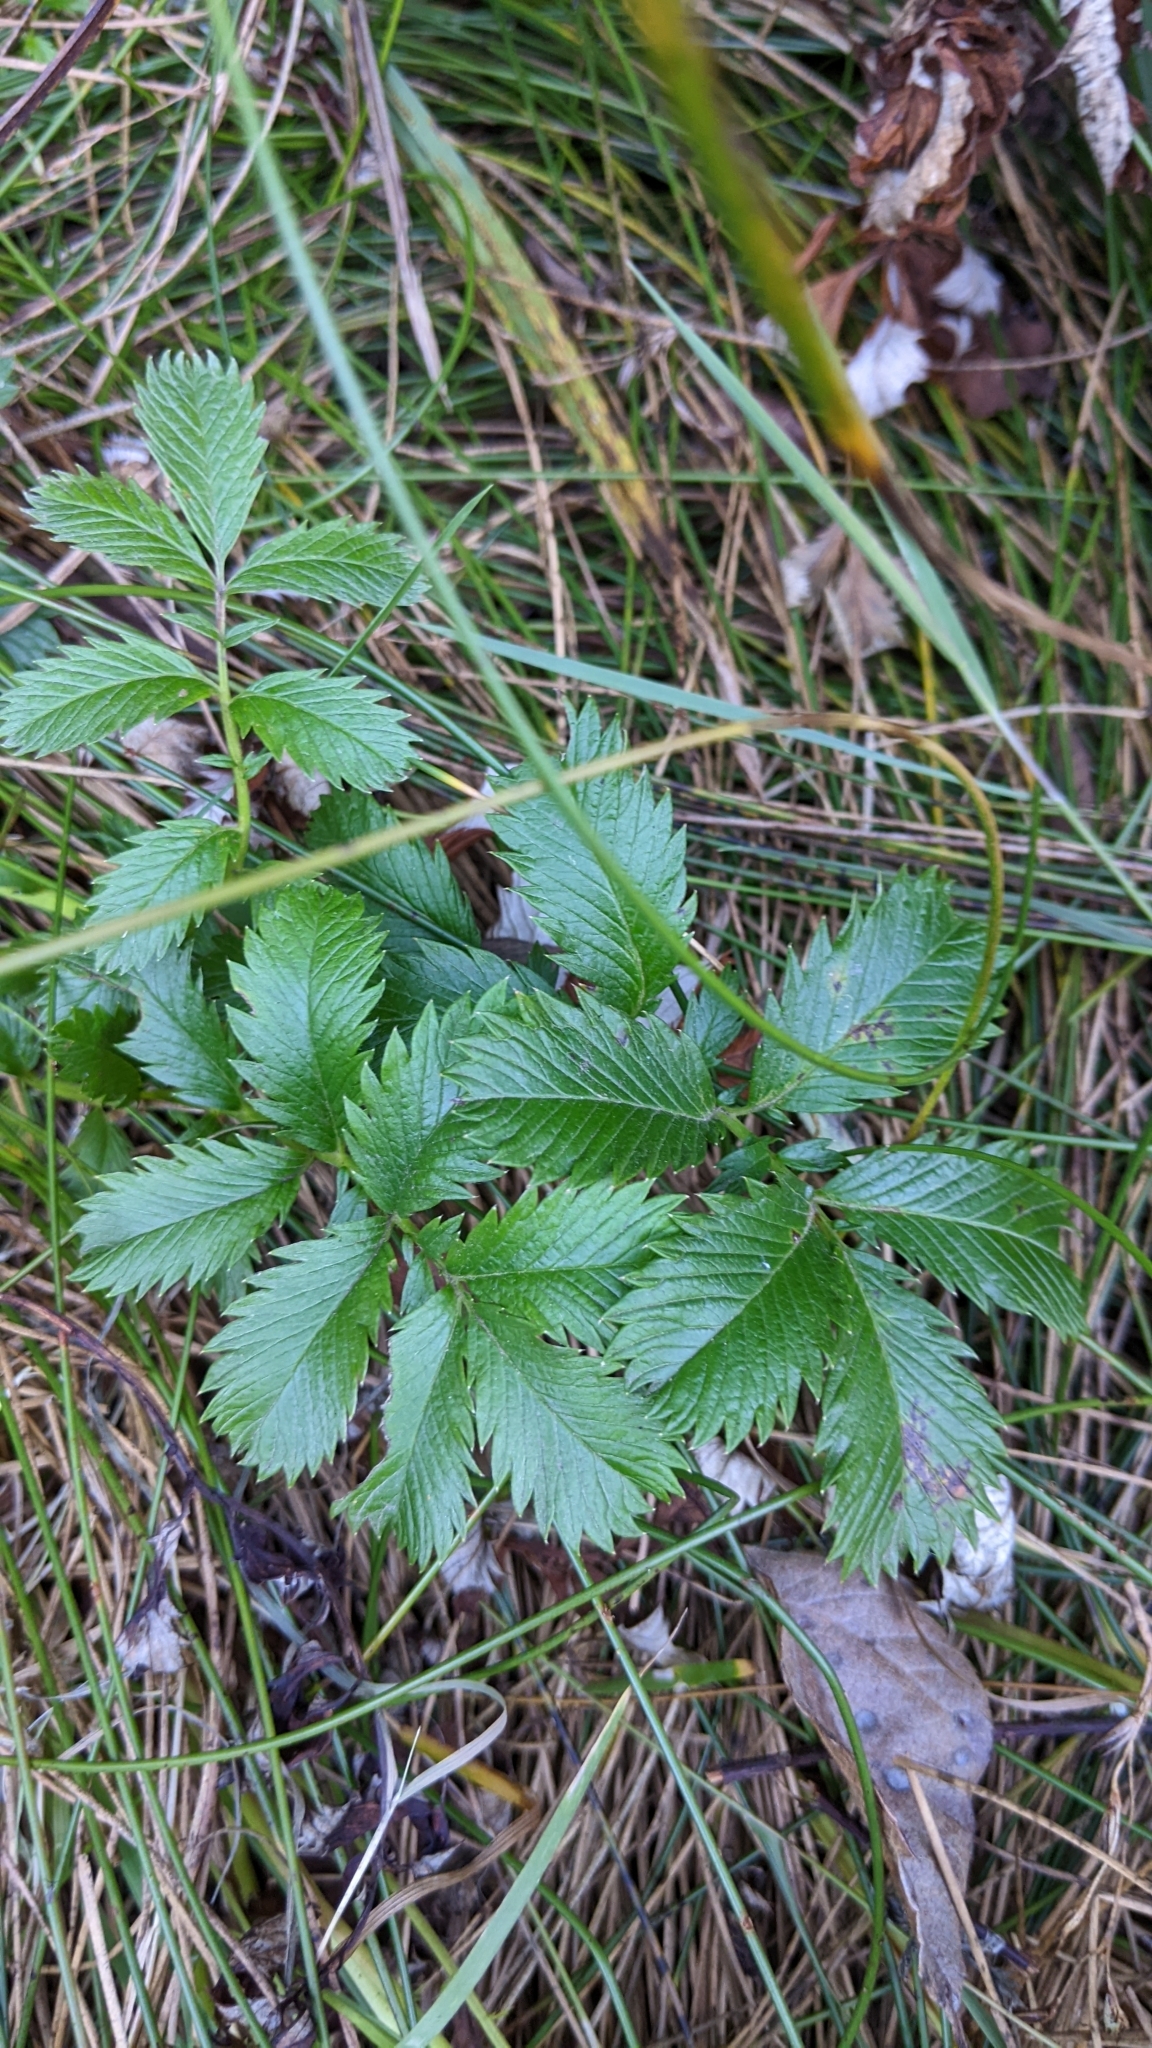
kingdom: Plantae
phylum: Tracheophyta
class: Magnoliopsida
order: Rosales
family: Rosaceae
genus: Argentina
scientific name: Argentina anserina
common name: Common silverweed
